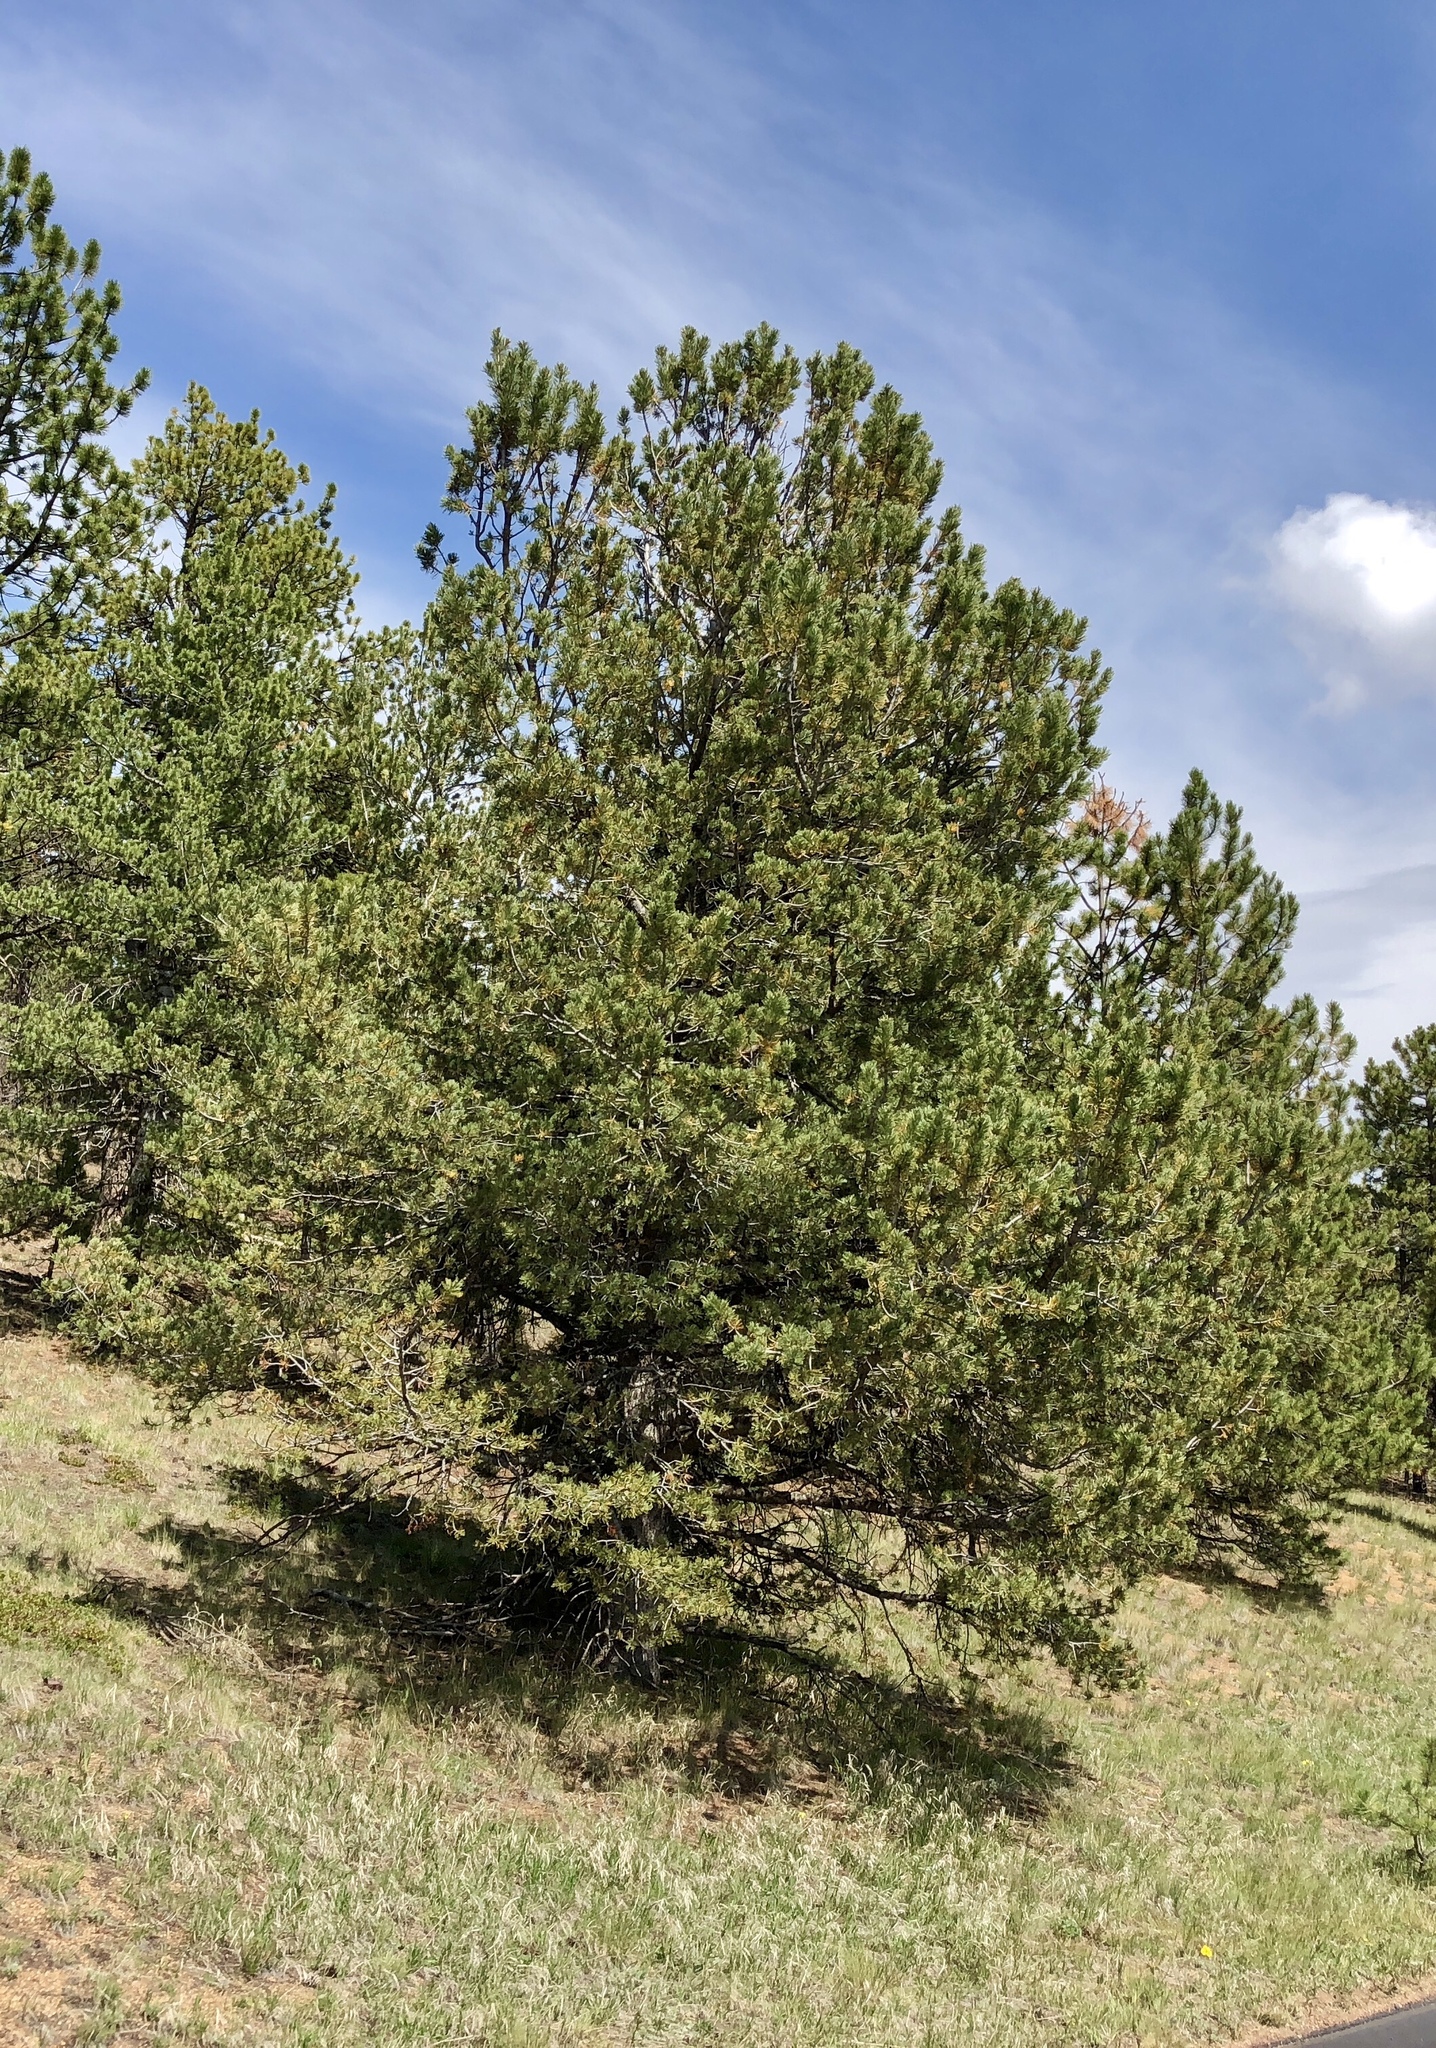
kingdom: Plantae
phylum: Tracheophyta
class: Pinopsida
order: Pinales
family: Pinaceae
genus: Pinus
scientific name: Pinus flexilis
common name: Limber pine
